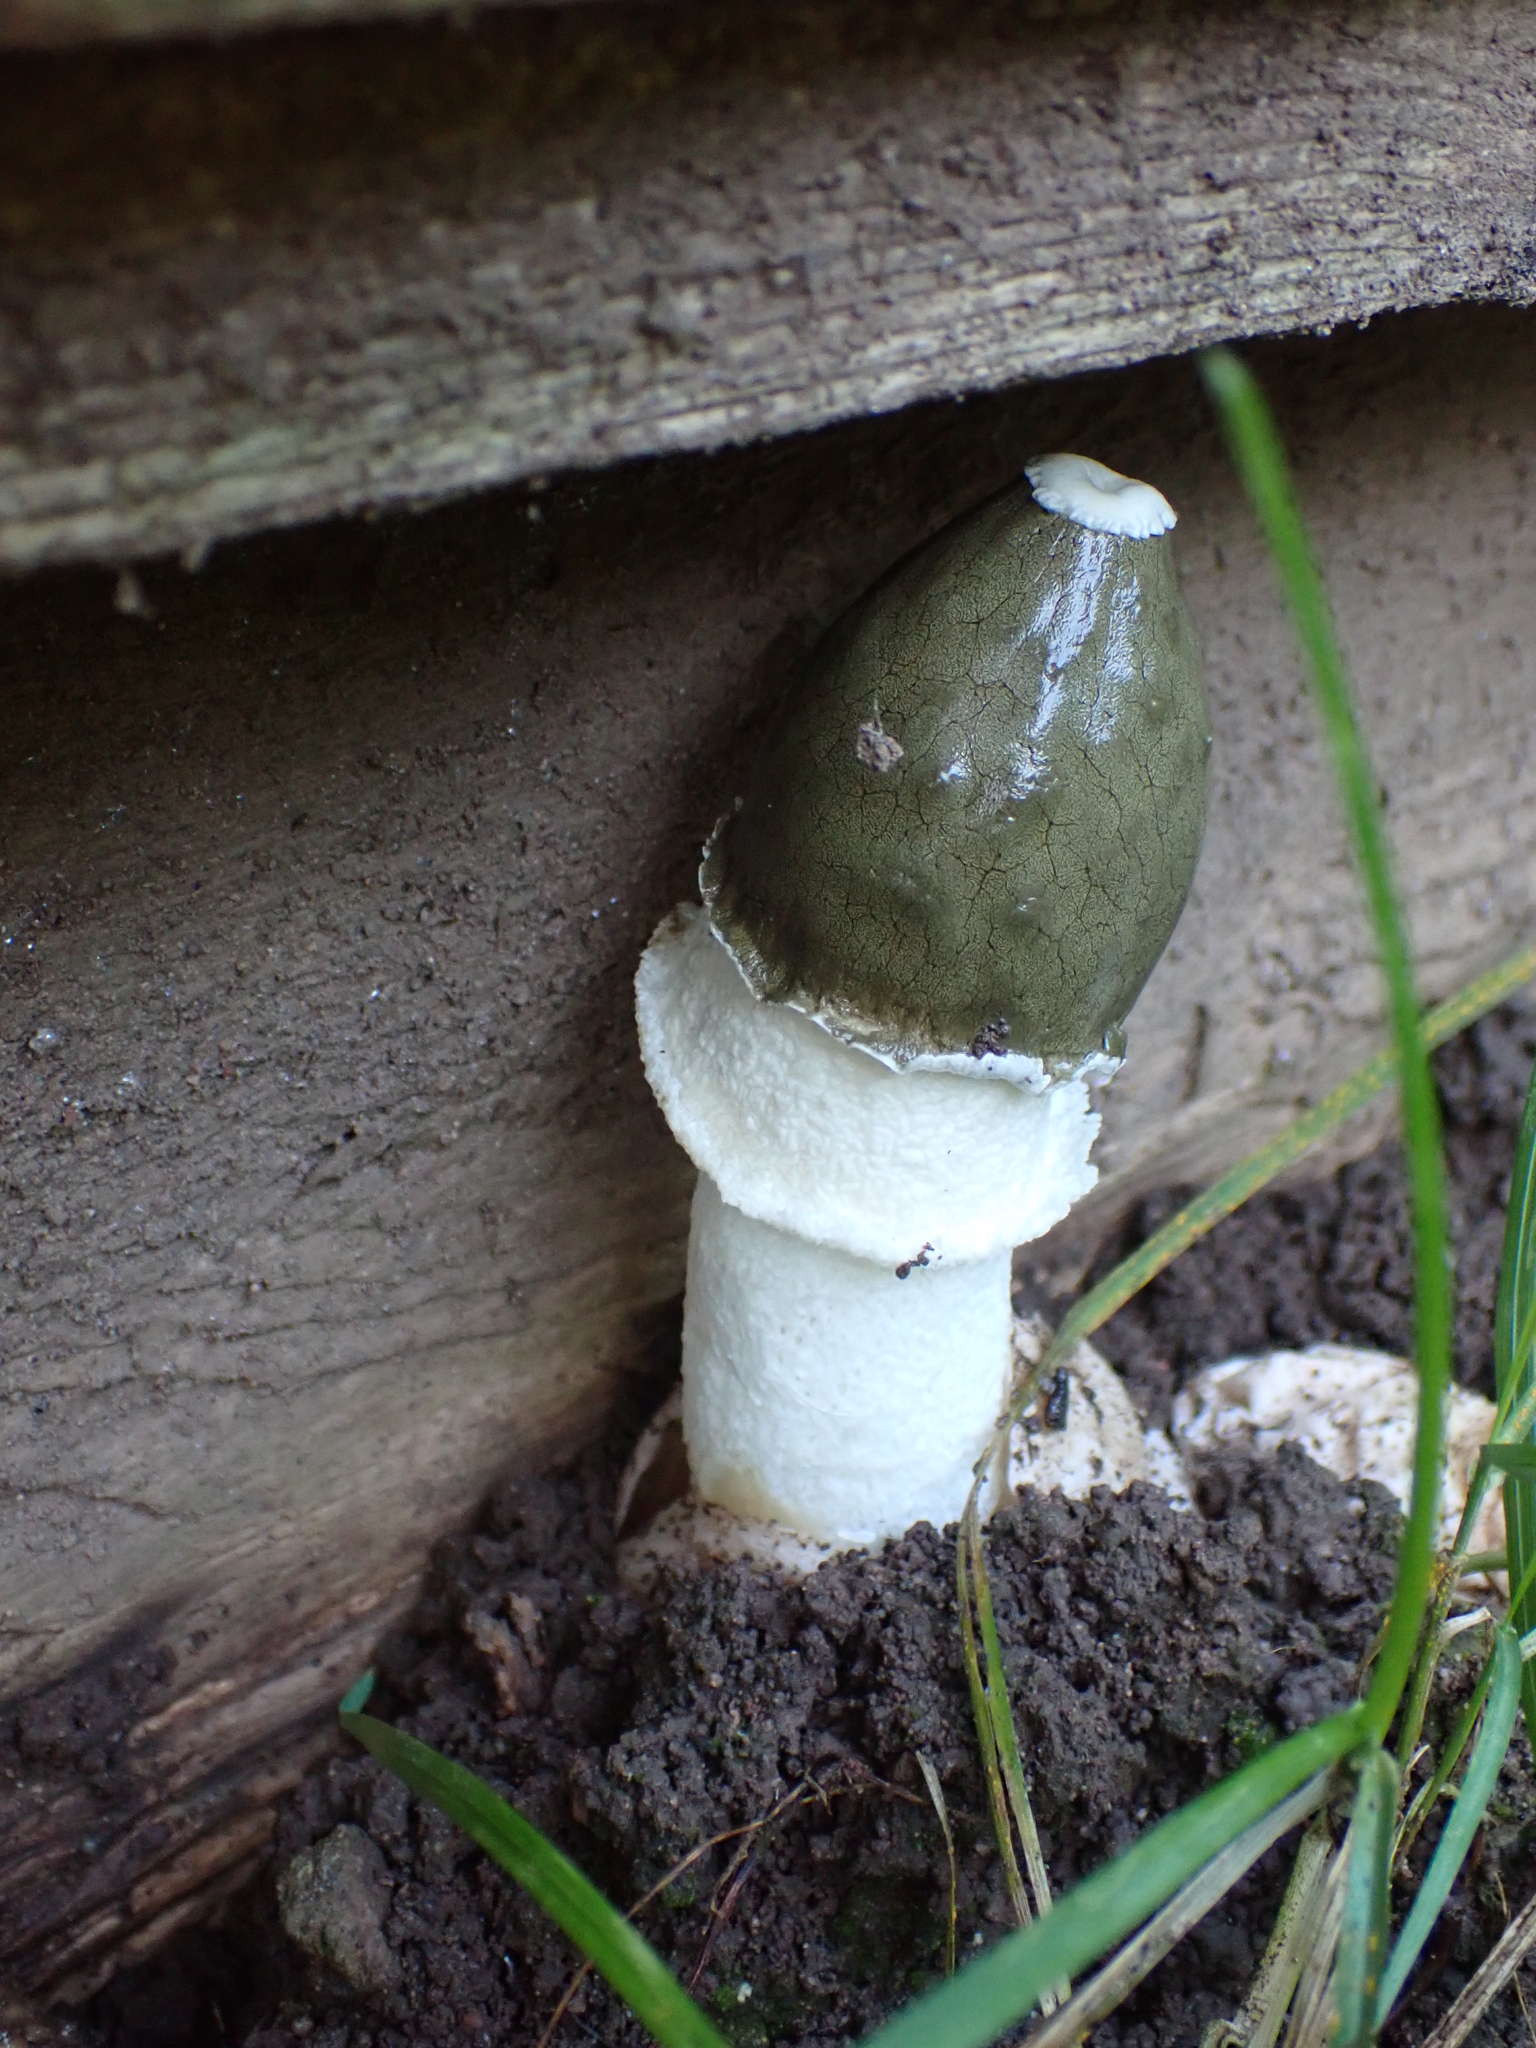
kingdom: Fungi
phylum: Basidiomycota
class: Agaricomycetes
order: Phallales
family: Phallaceae
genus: Phallus
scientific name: Phallus indusiatus
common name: Bridal veil stinkhorn
